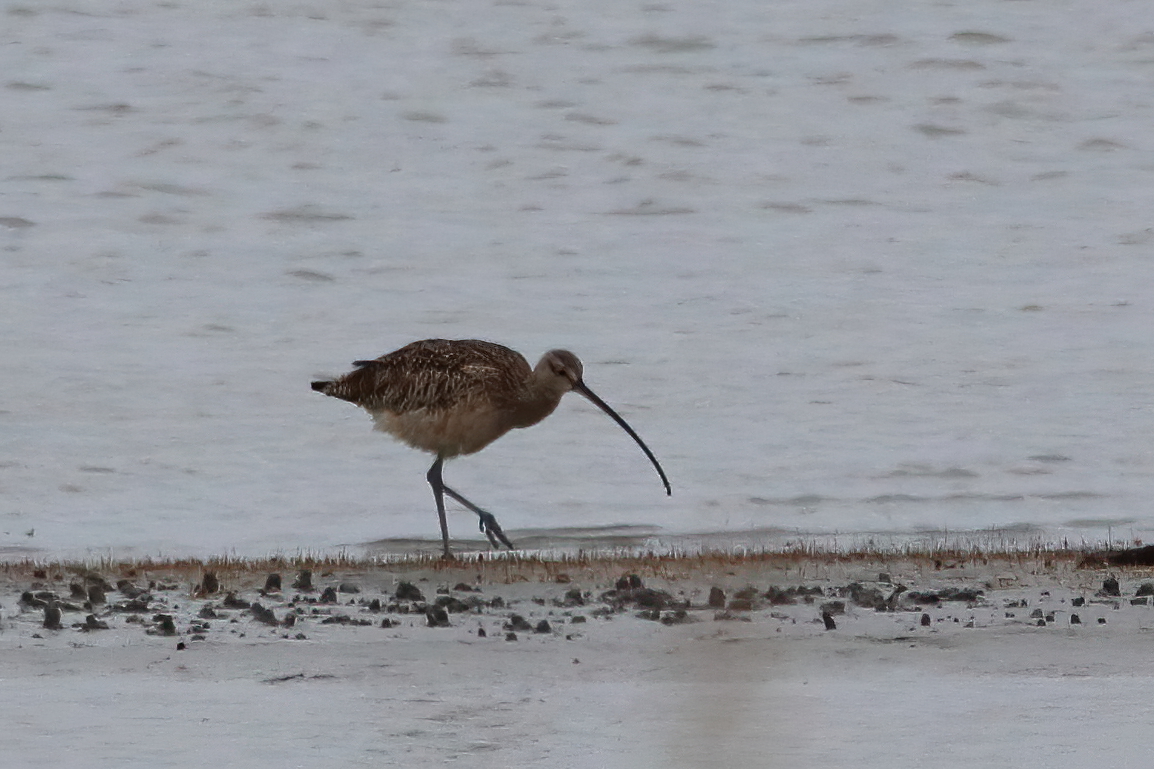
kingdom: Animalia
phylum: Chordata
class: Aves
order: Charadriiformes
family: Scolopacidae
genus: Numenius
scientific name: Numenius americanus
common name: Long-billed curlew
